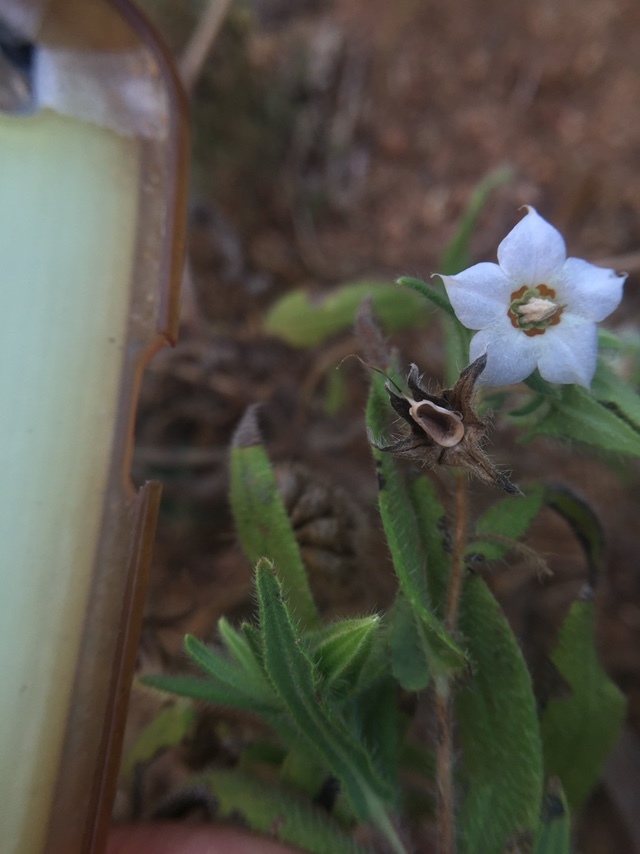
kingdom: Plantae
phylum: Tracheophyta
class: Magnoliopsida
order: Boraginales
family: Boraginaceae
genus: Trichodesma
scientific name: Trichodesma indicum
